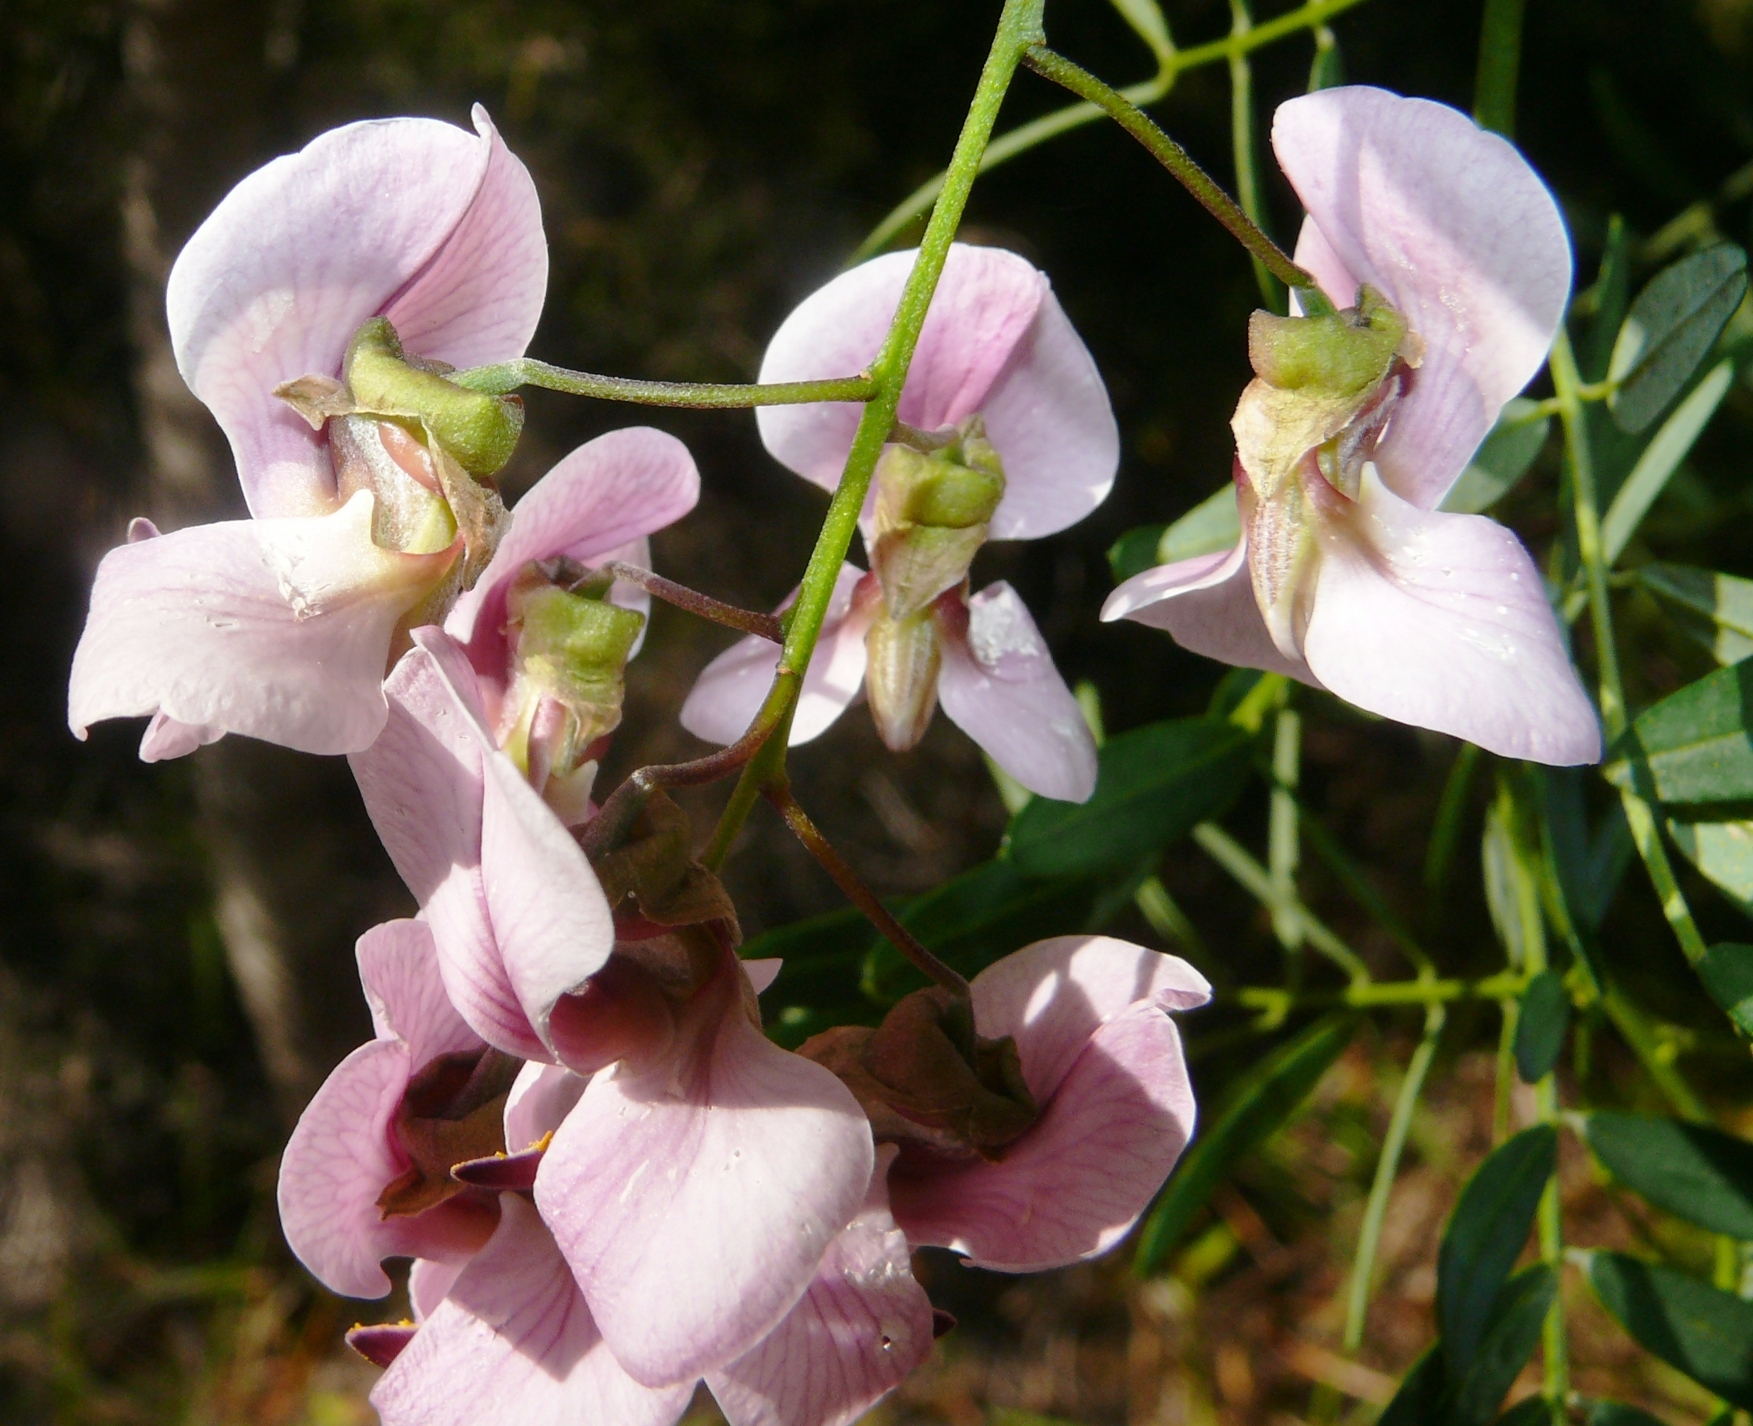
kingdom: Plantae
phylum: Tracheophyta
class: Magnoliopsida
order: Fabales
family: Fabaceae
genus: Virgilia
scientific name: Virgilia divaricata
